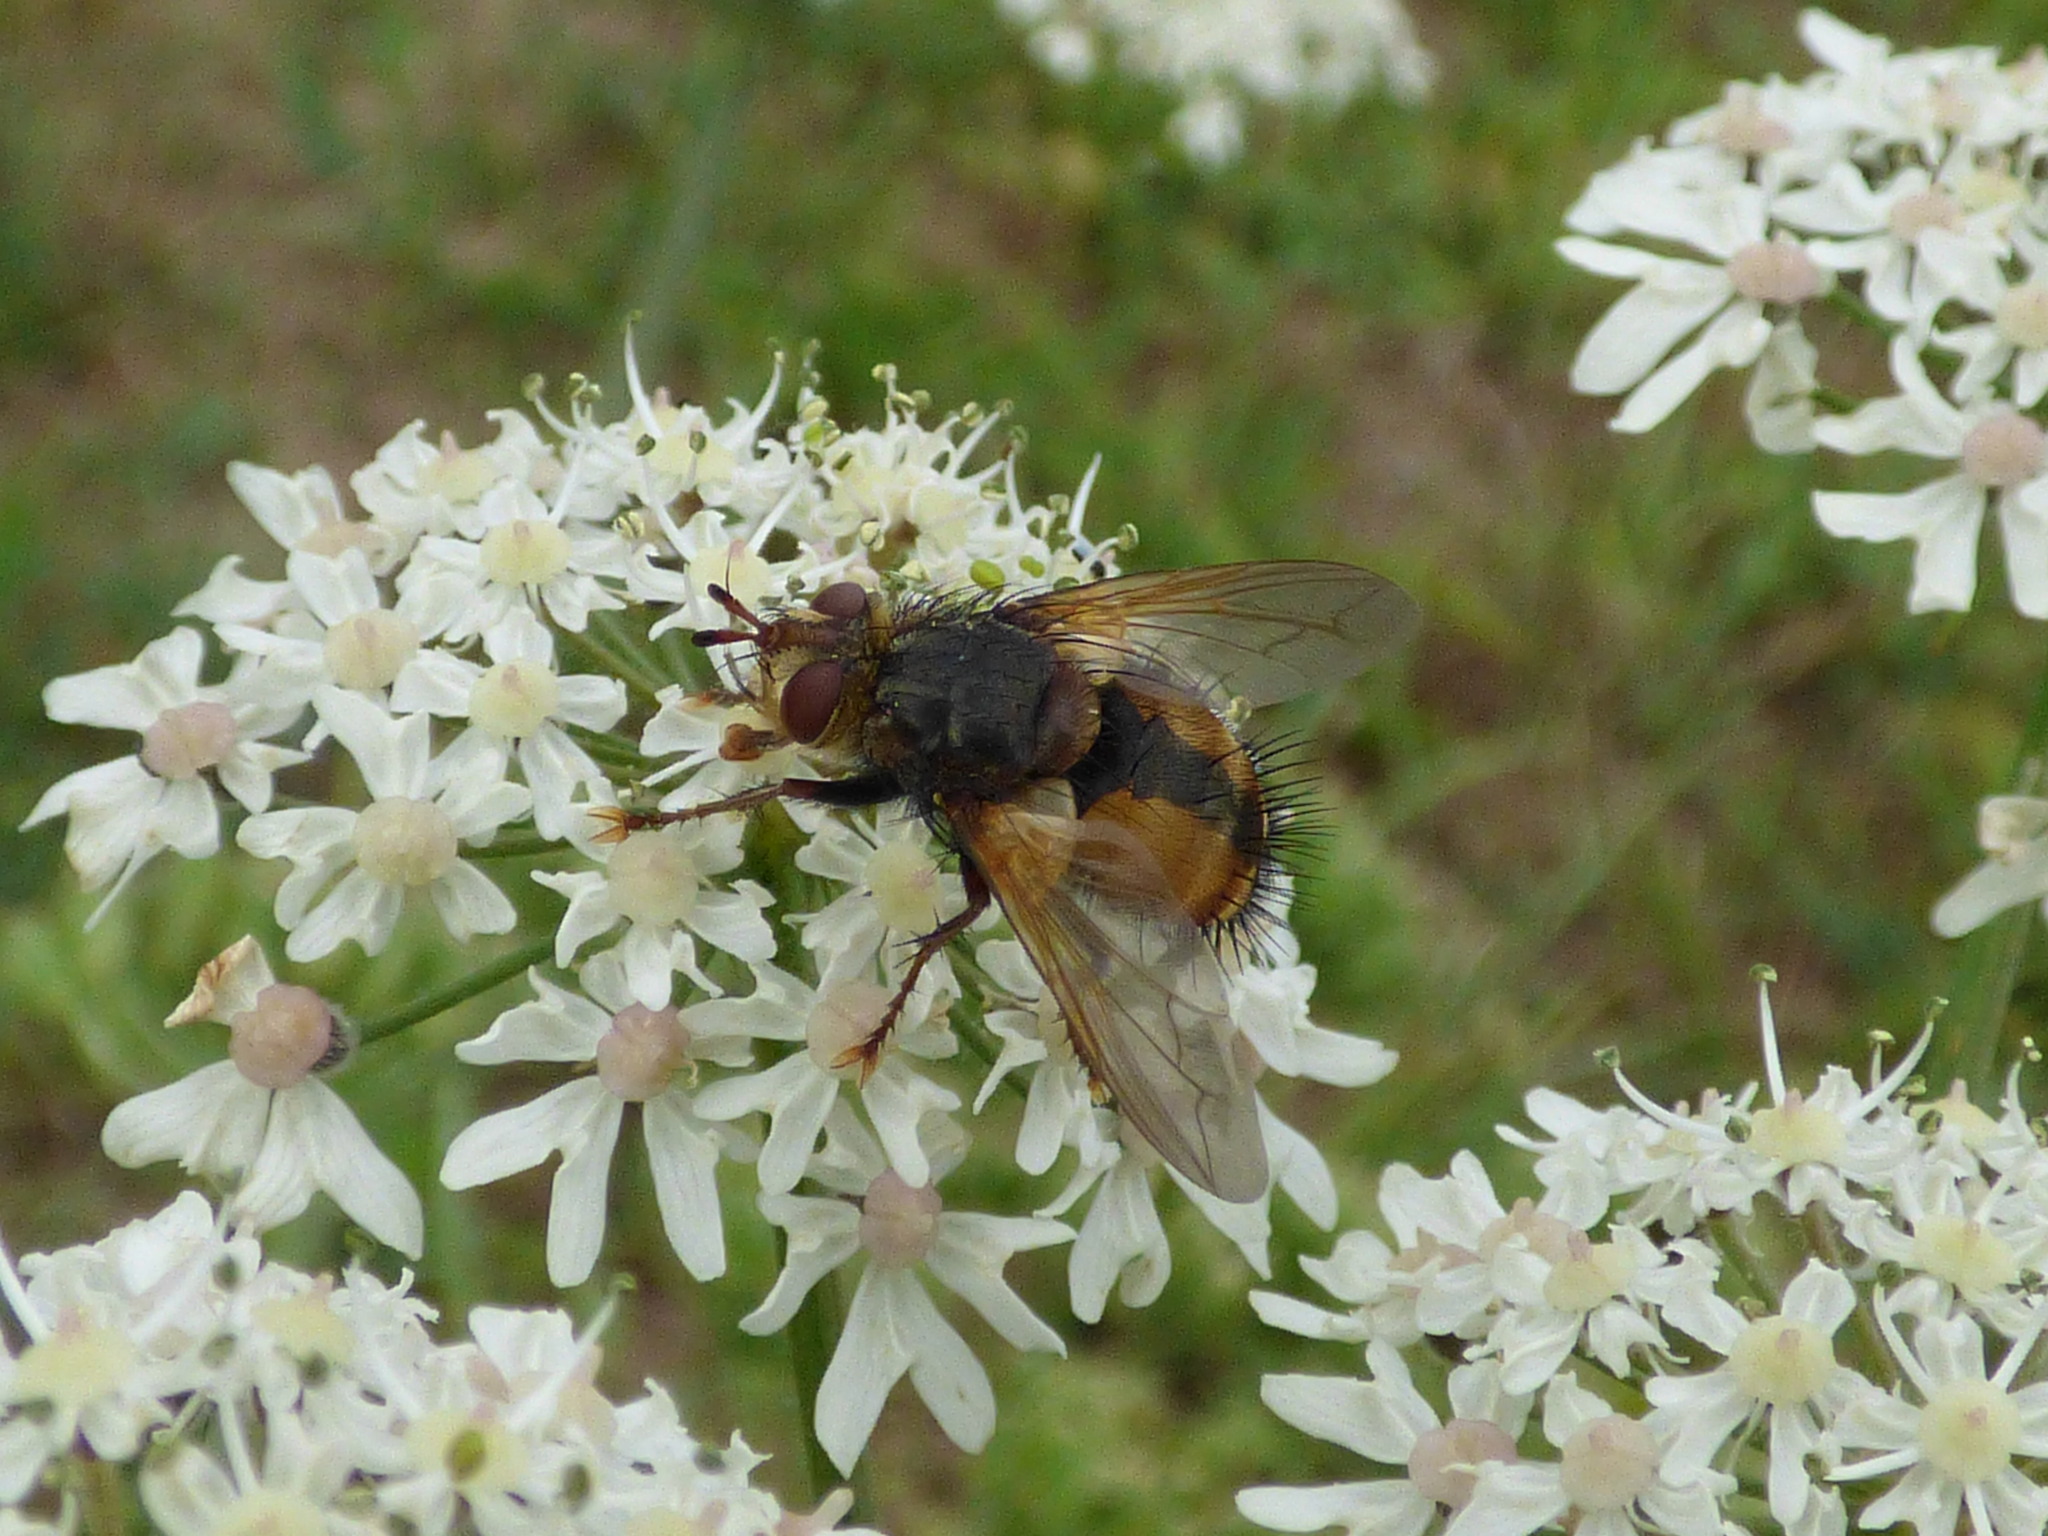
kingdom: Animalia
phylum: Arthropoda
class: Insecta
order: Diptera
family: Tachinidae
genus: Tachina
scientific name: Tachina fera
